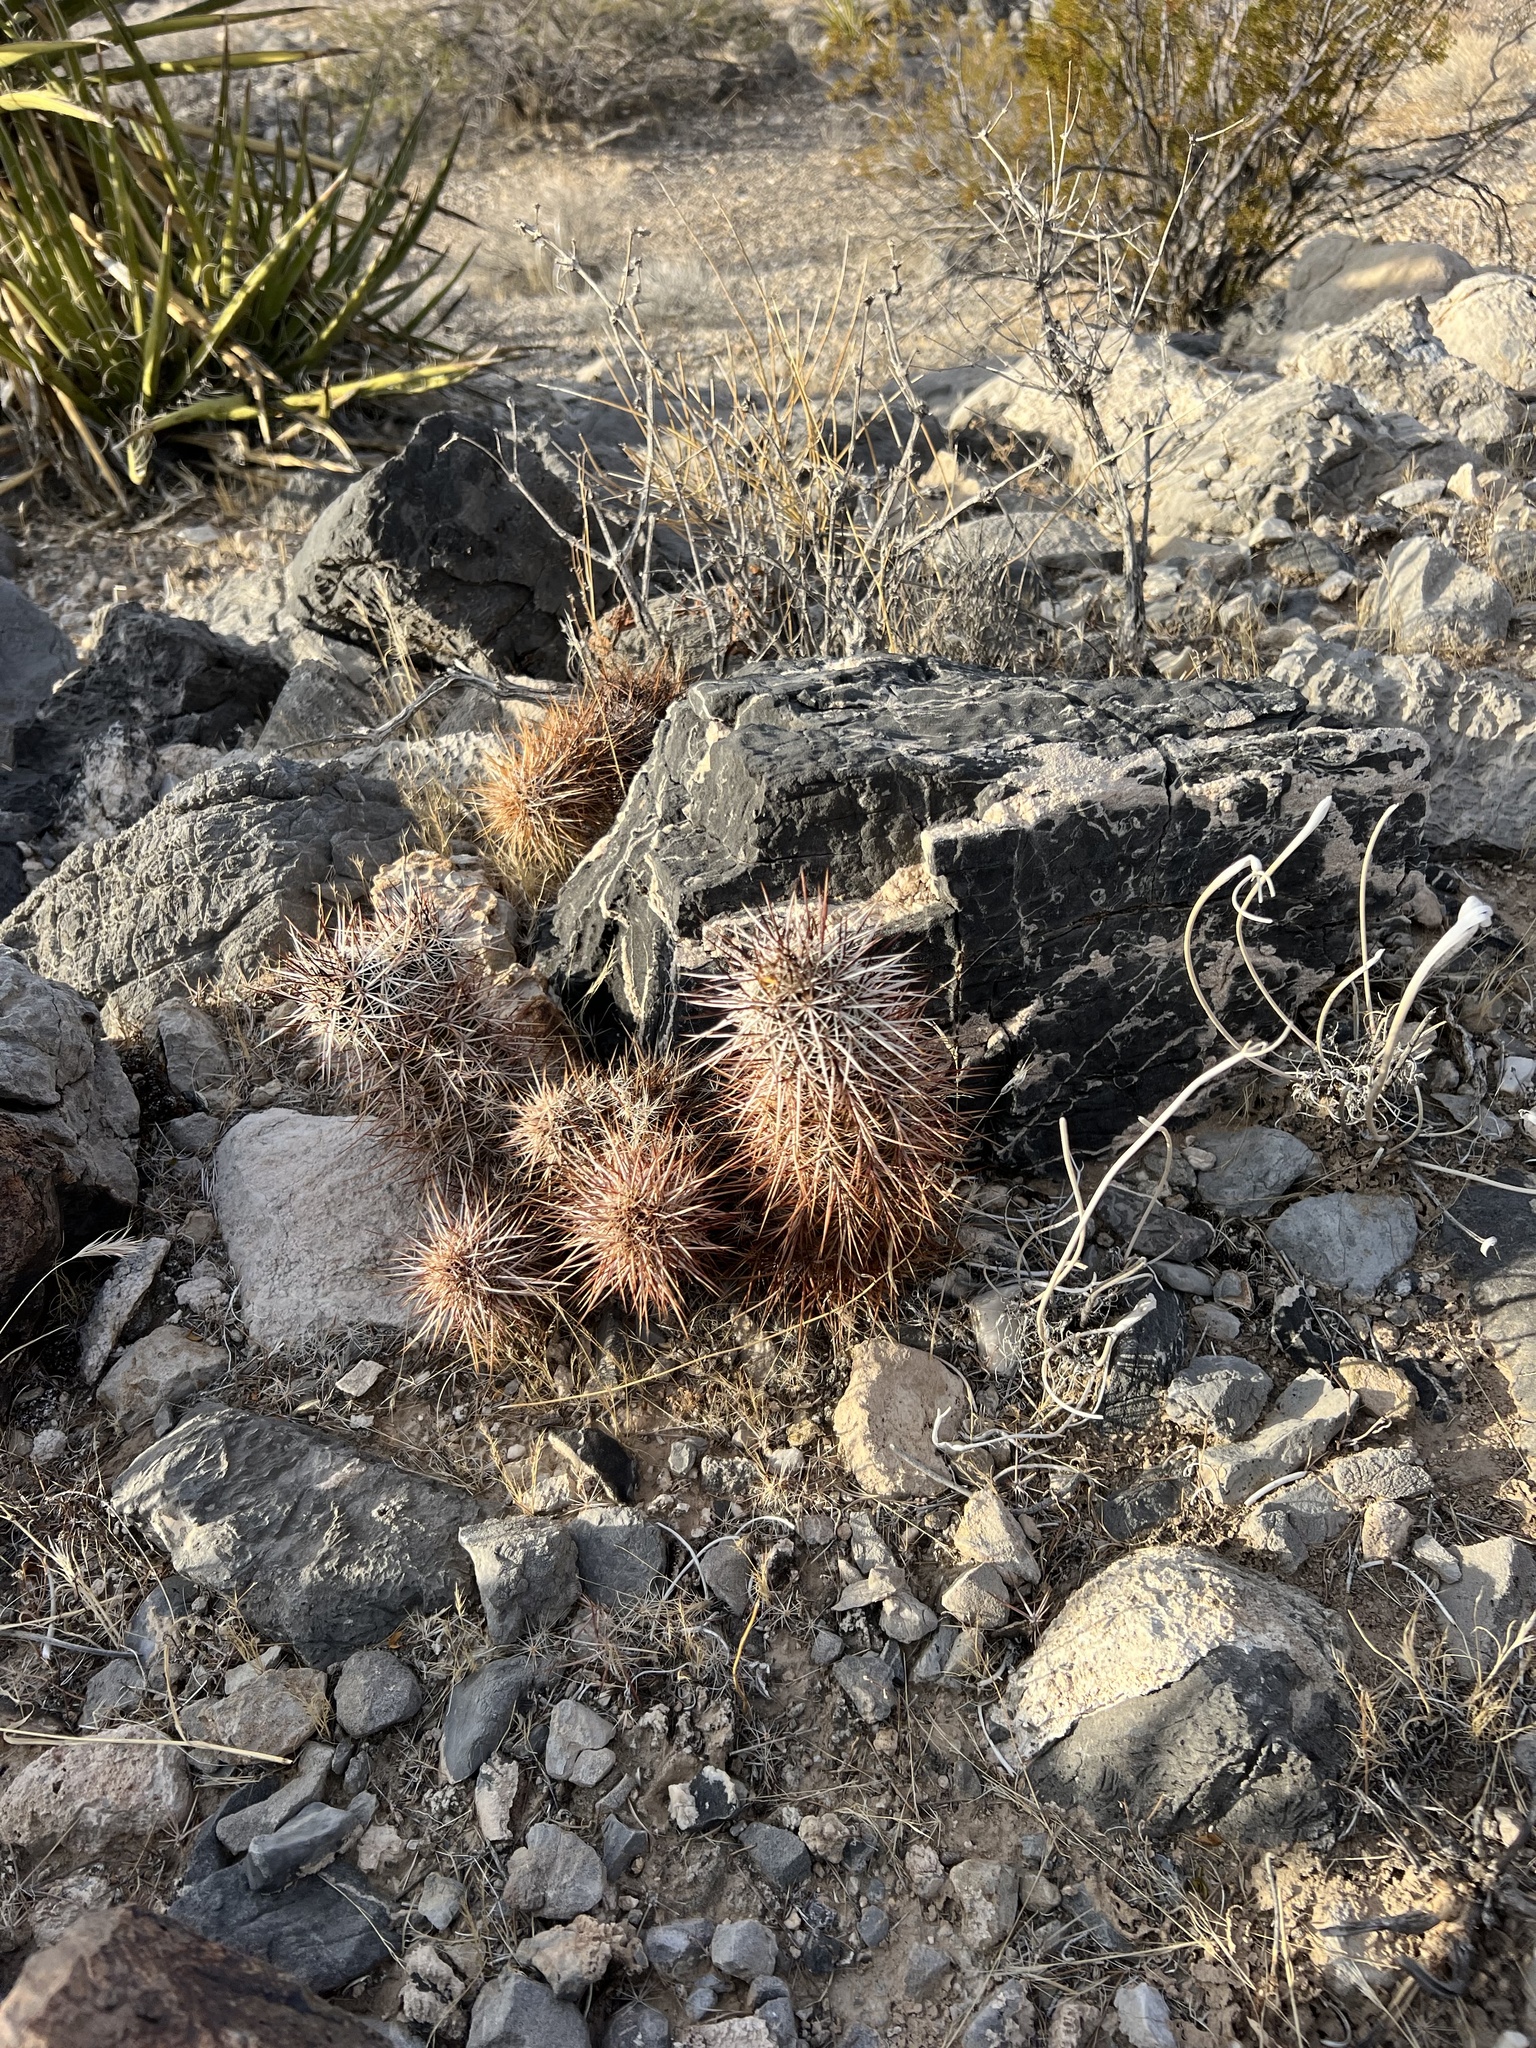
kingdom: Plantae
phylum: Tracheophyta
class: Magnoliopsida
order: Caryophyllales
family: Cactaceae
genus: Echinocereus
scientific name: Echinocereus engelmannii
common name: Engelmann's hedgehog cactus
